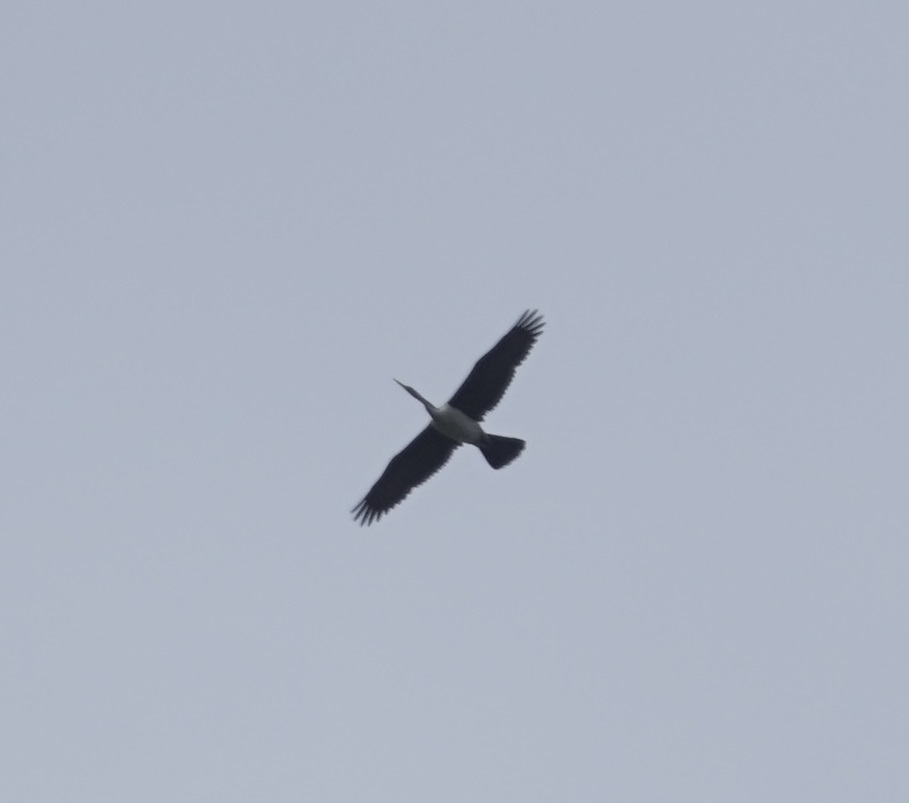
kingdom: Animalia
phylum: Chordata
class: Aves
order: Suliformes
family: Anhingidae
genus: Anhinga
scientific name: Anhinga novaehollandiae
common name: Australasian darter
